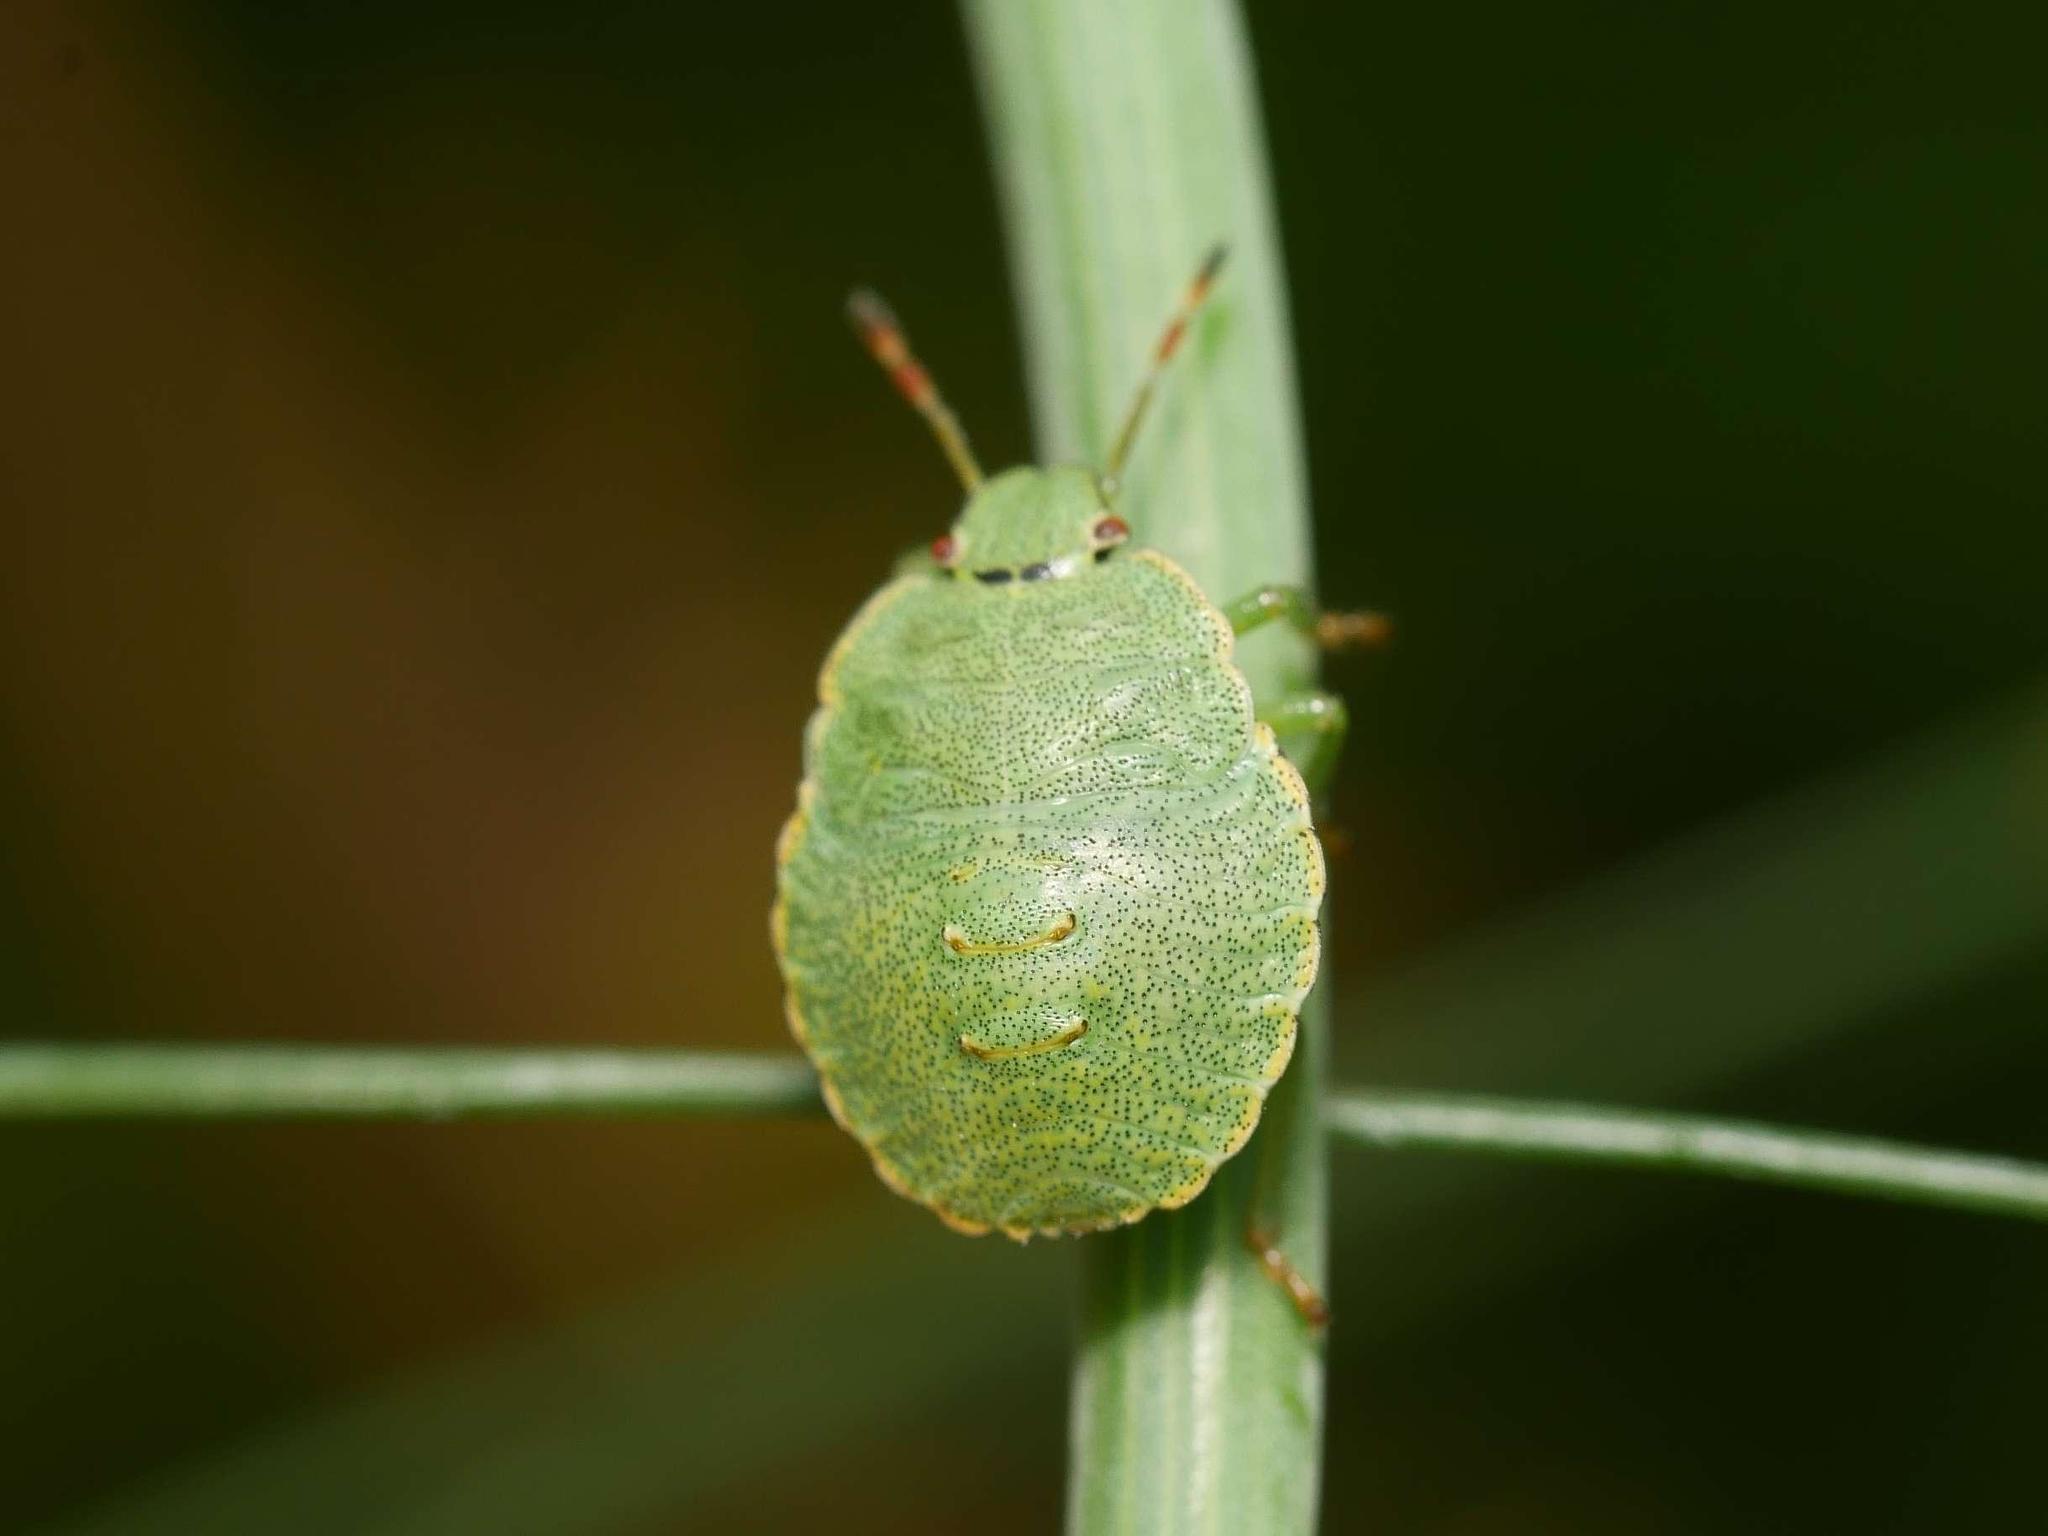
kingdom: Animalia
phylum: Arthropoda
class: Insecta
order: Hemiptera
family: Pentatomidae
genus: Palomena
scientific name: Palomena prasina
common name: Green shieldbug
